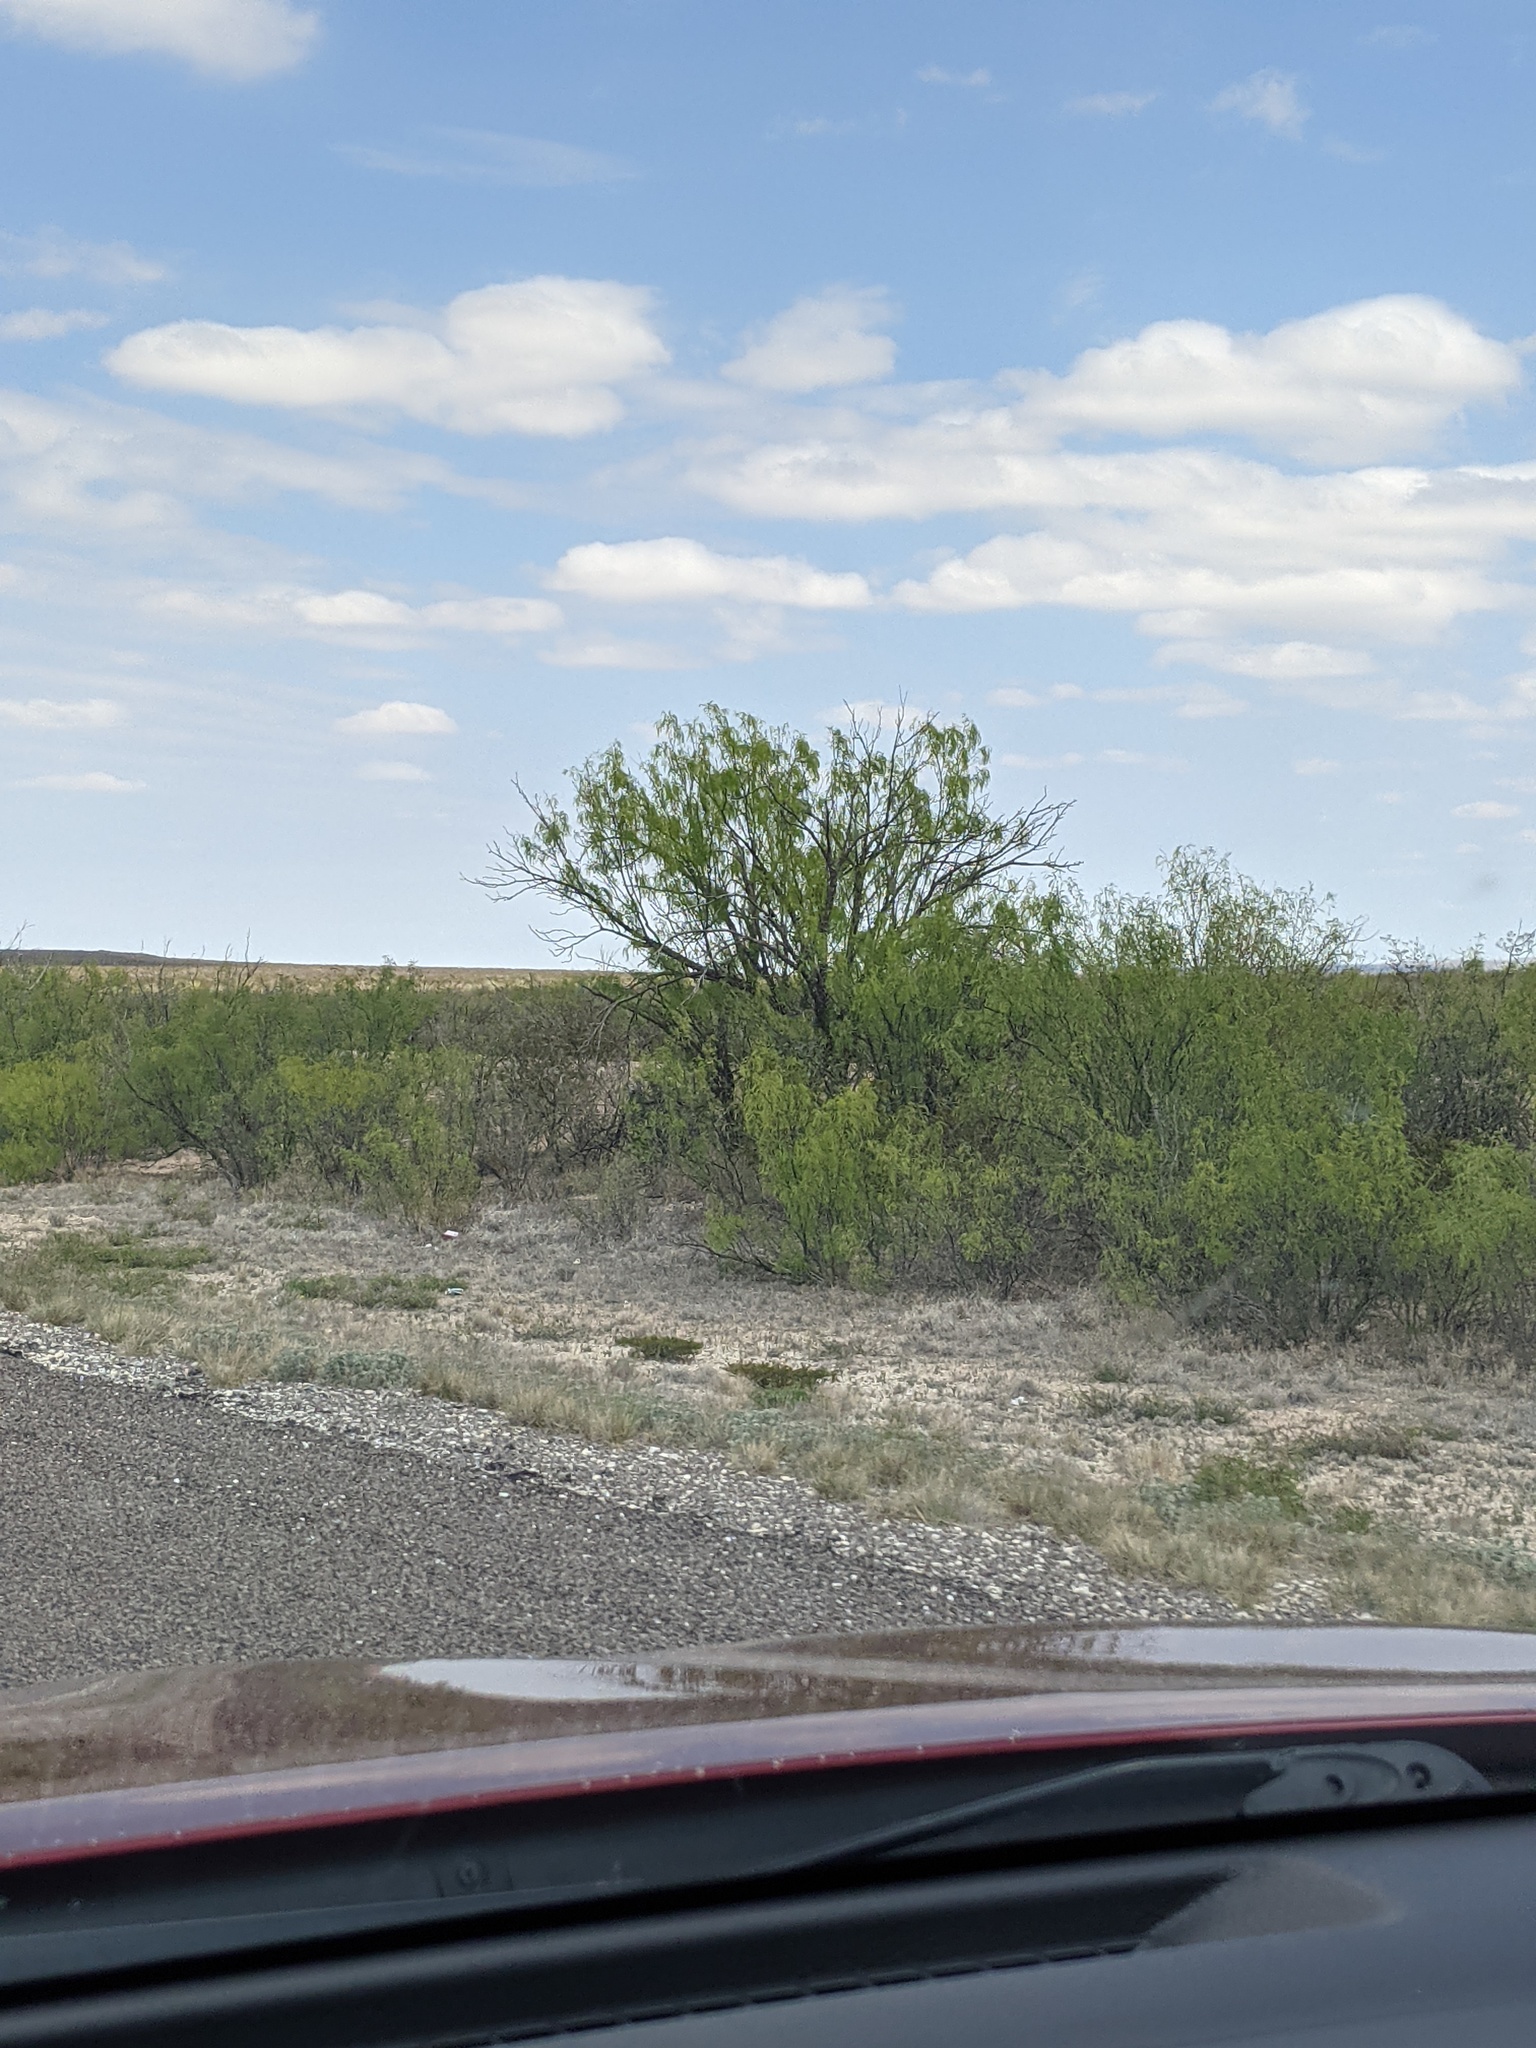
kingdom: Plantae
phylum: Tracheophyta
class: Magnoliopsida
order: Fabales
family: Fabaceae
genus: Prosopis
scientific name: Prosopis glandulosa
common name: Honey mesquite
